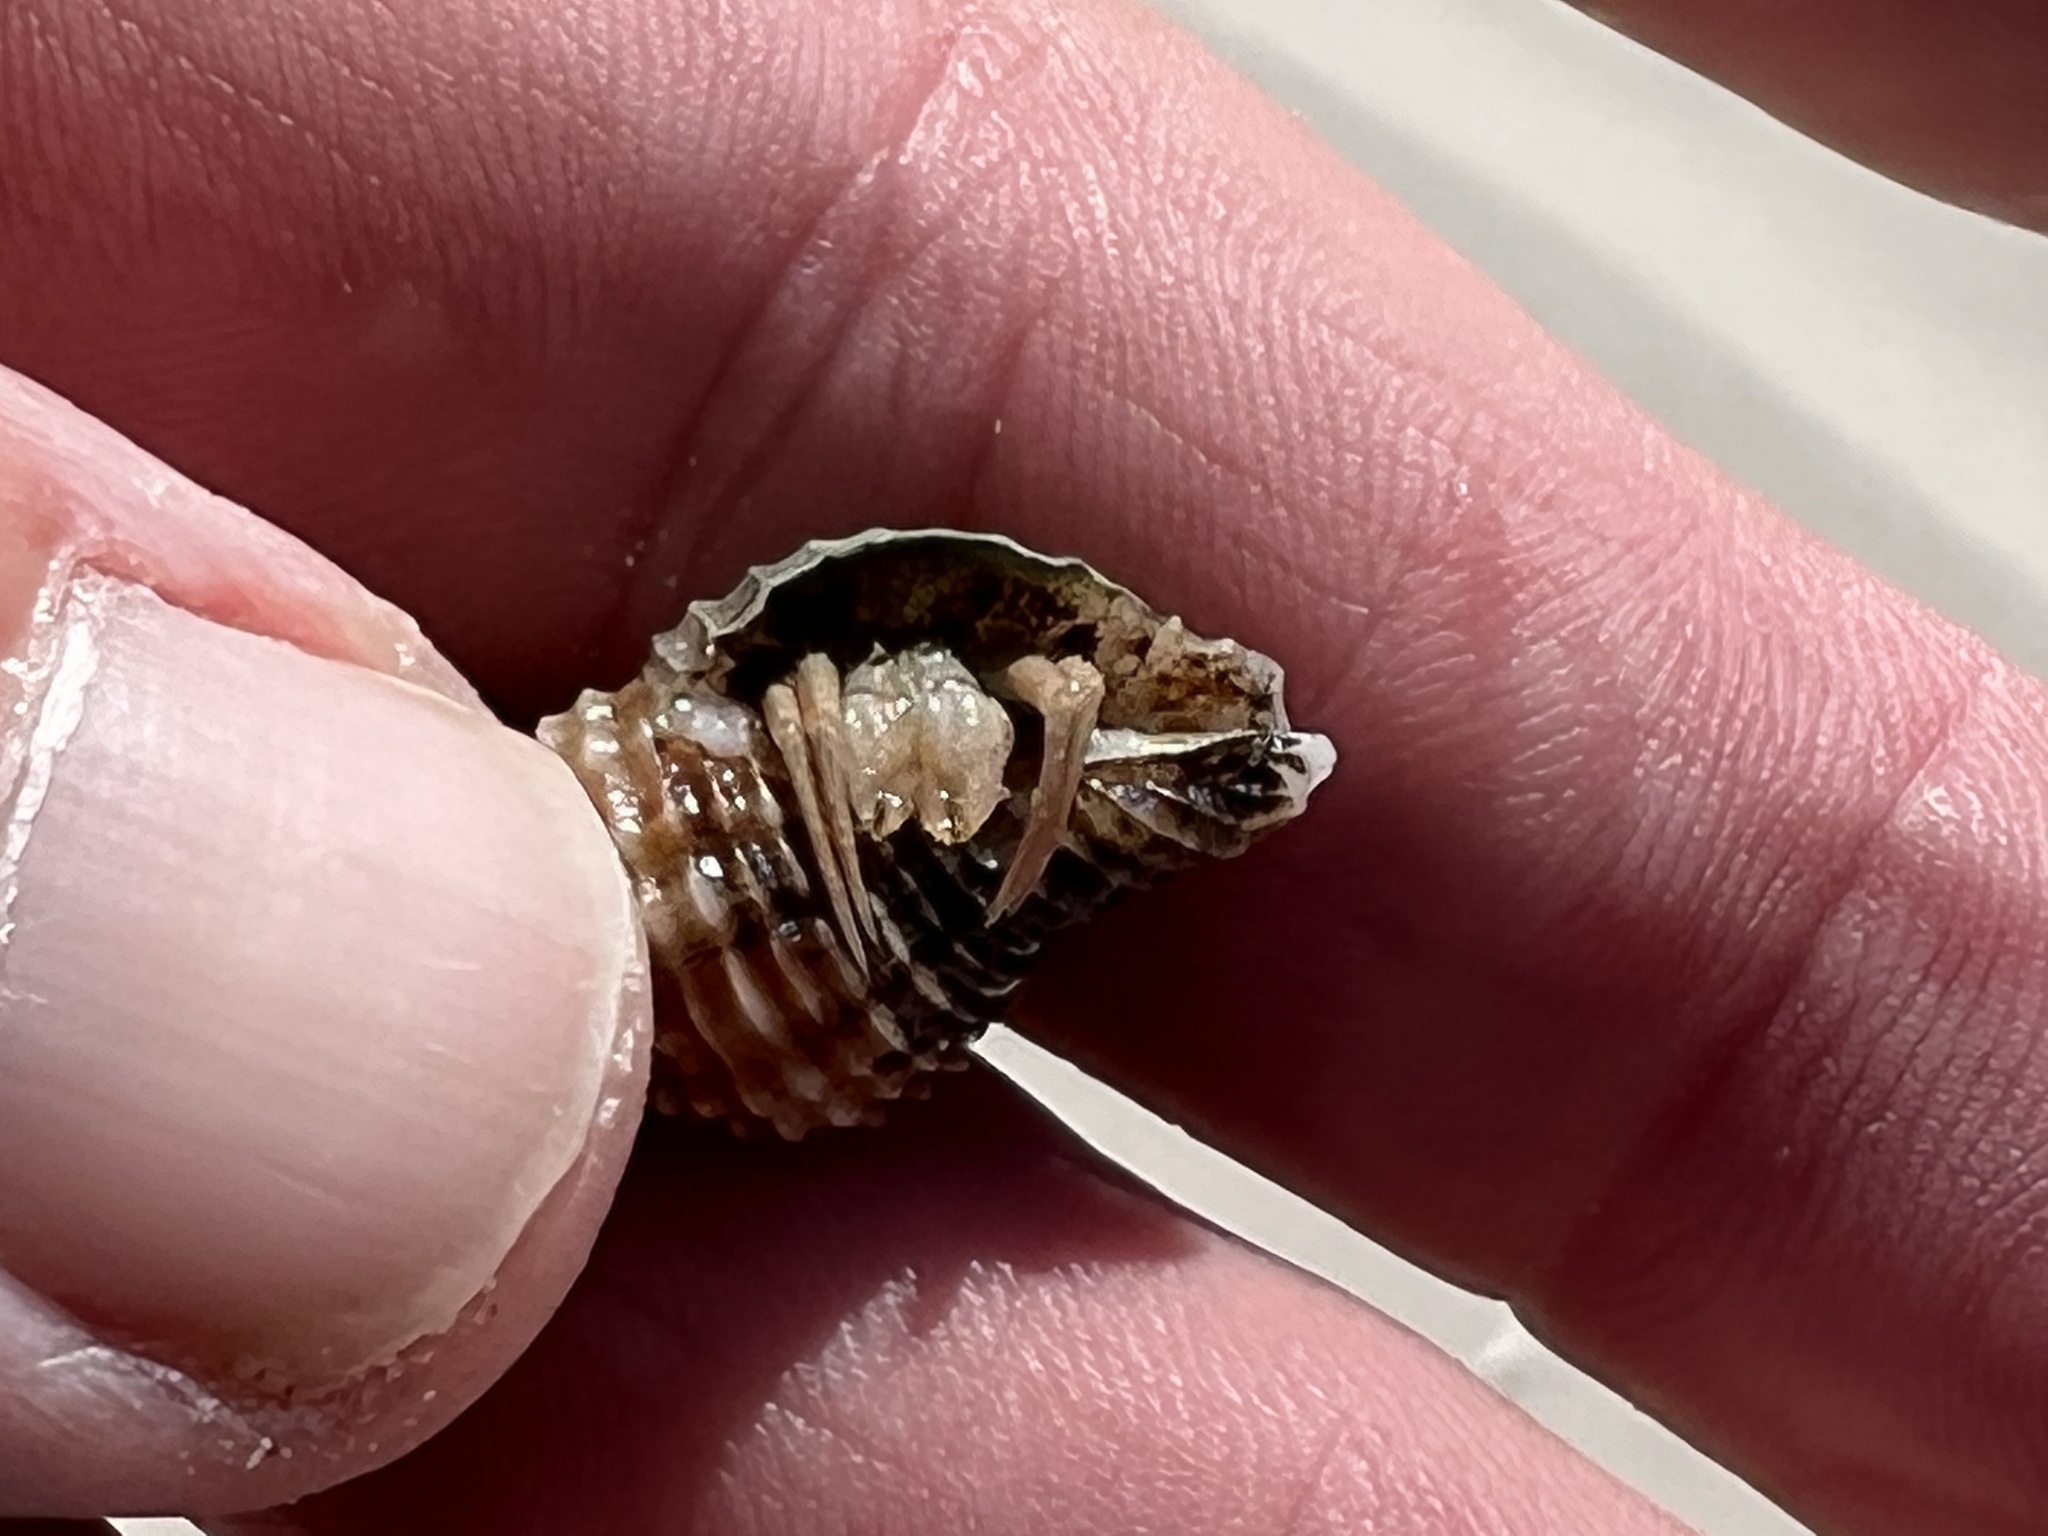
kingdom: Animalia
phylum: Arthropoda
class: Malacostraca
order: Decapoda
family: Diogenidae
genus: Isocheles
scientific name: Isocheles wurdemanni
